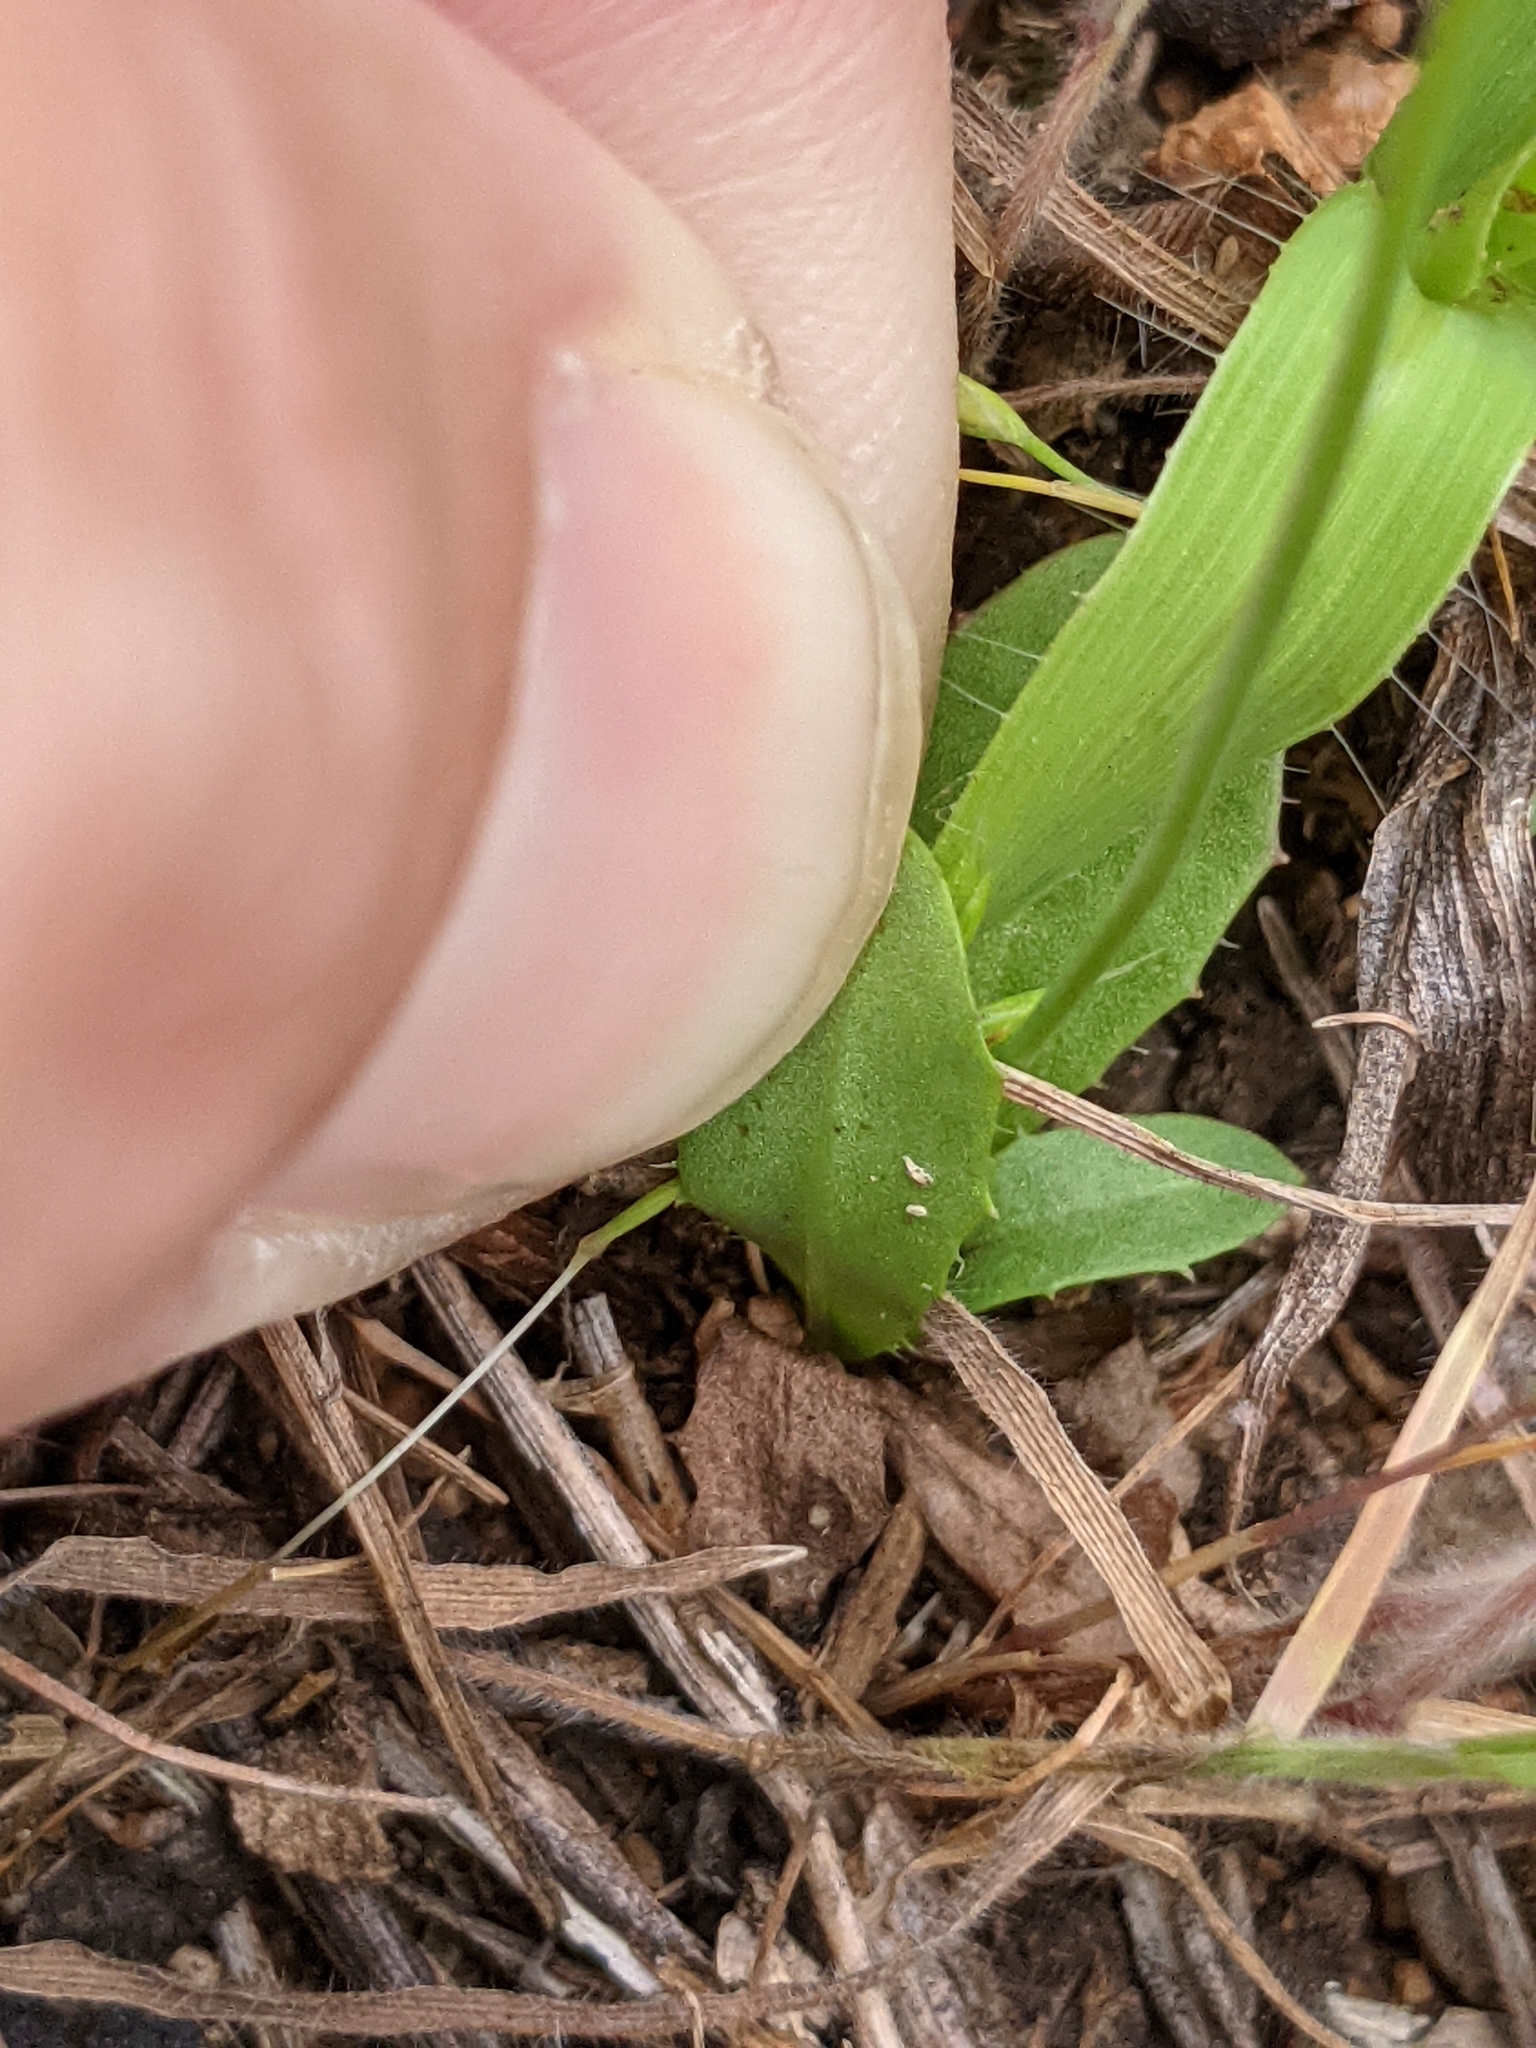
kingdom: Plantae
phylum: Tracheophyta
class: Magnoliopsida
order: Asterales
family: Asteraceae
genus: Hypochaeris
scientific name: Hypochaeris glabra
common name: Smooth catsear
